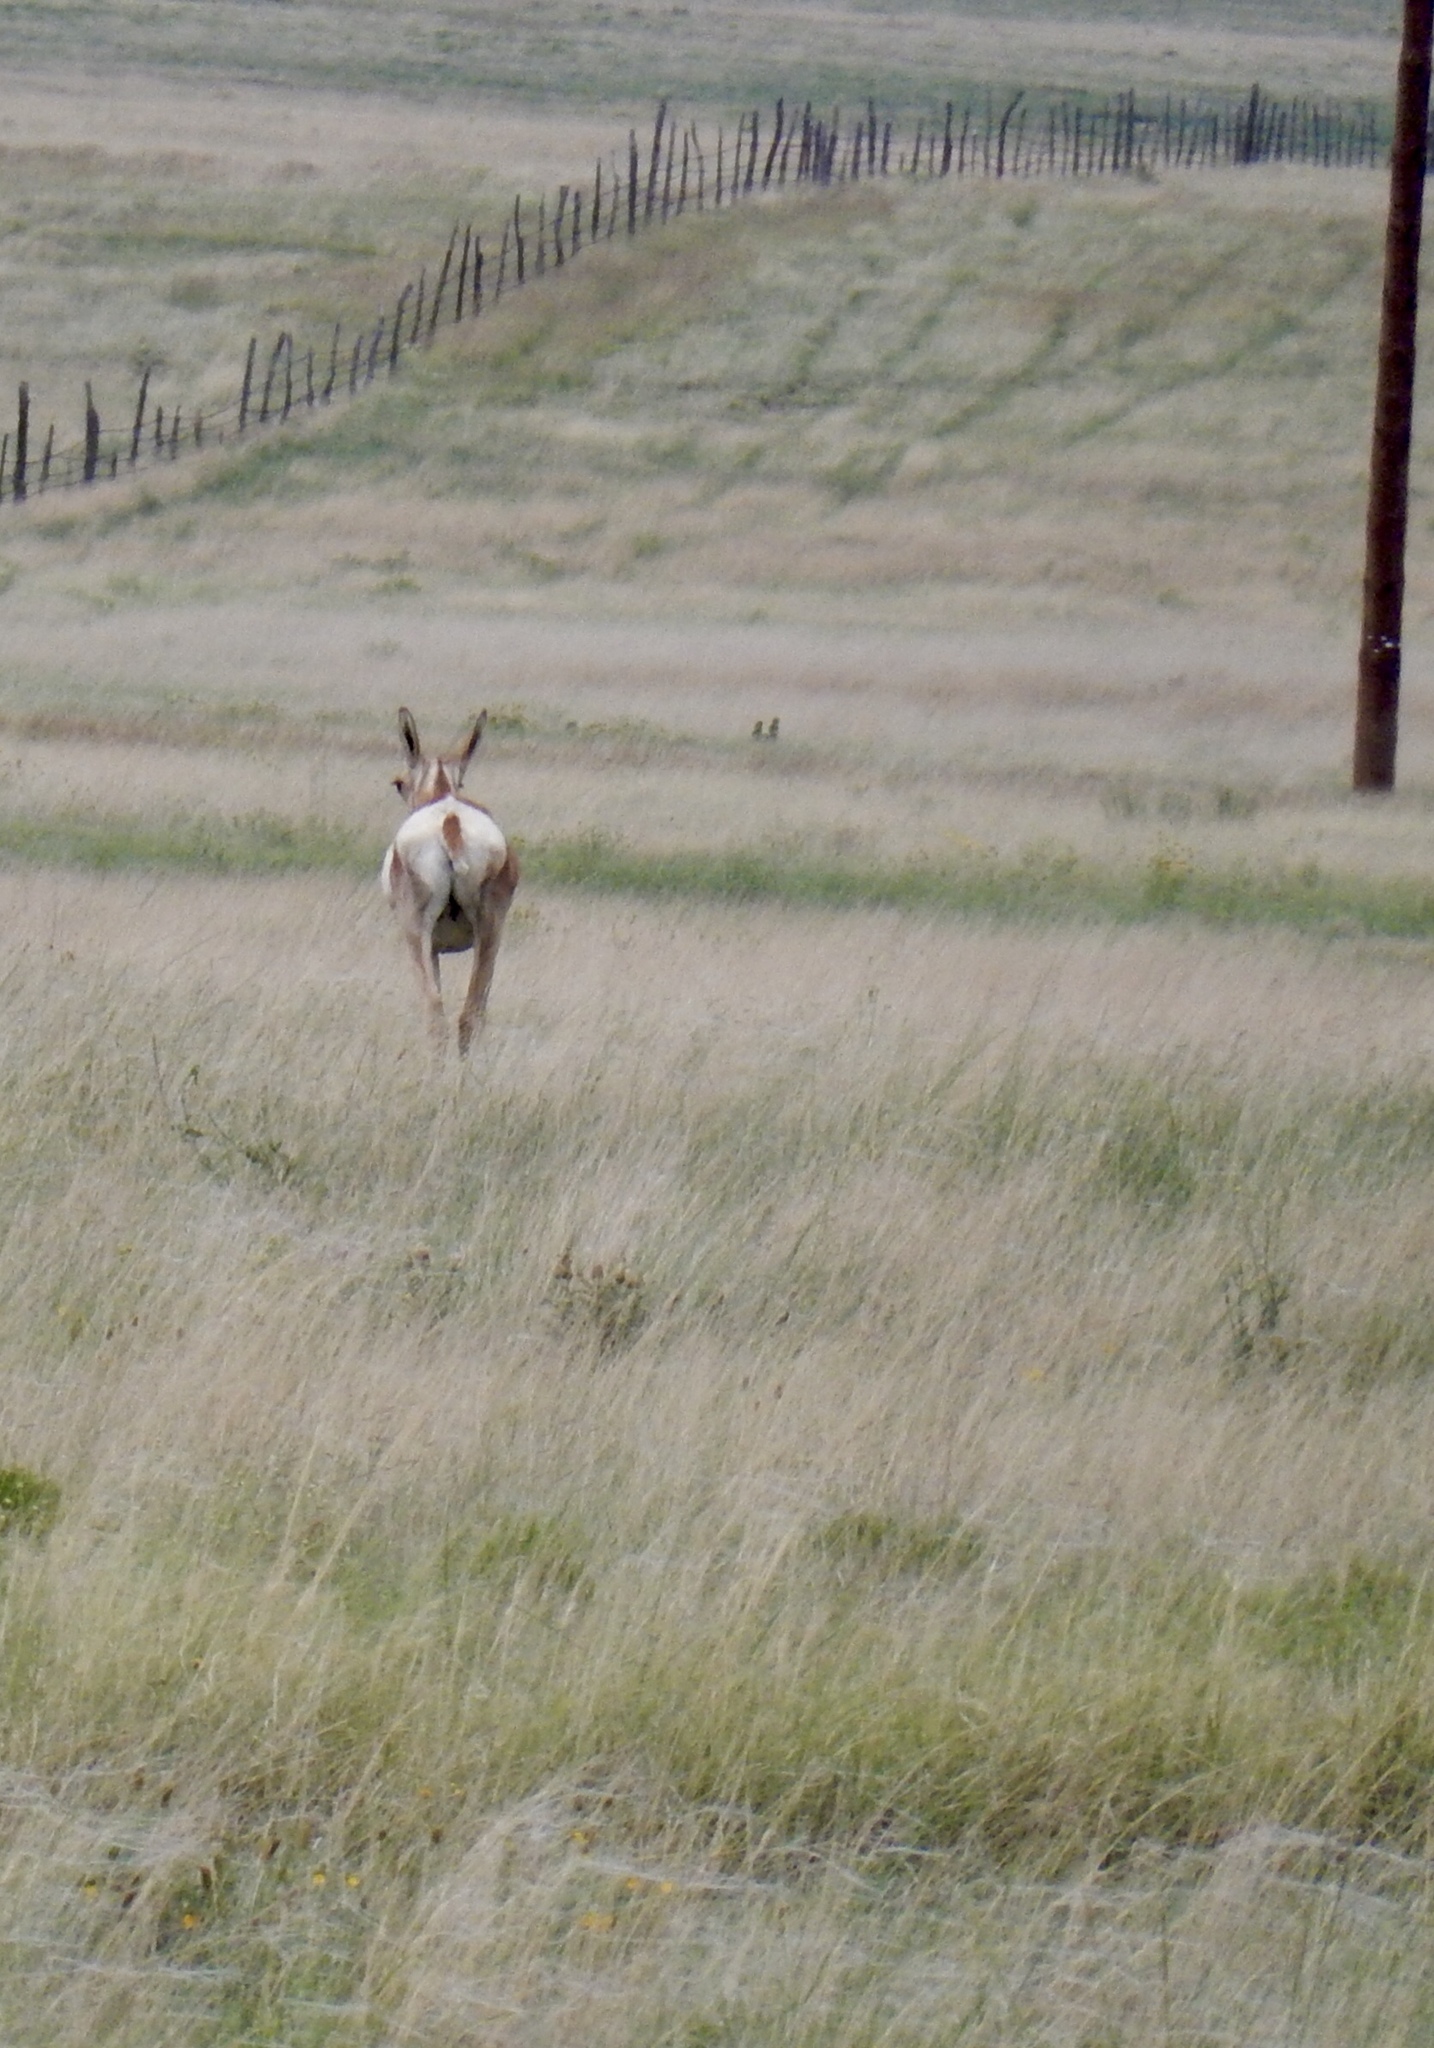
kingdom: Animalia
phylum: Chordata
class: Mammalia
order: Artiodactyla
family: Antilocapridae
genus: Antilocapra
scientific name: Antilocapra americana
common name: Pronghorn
